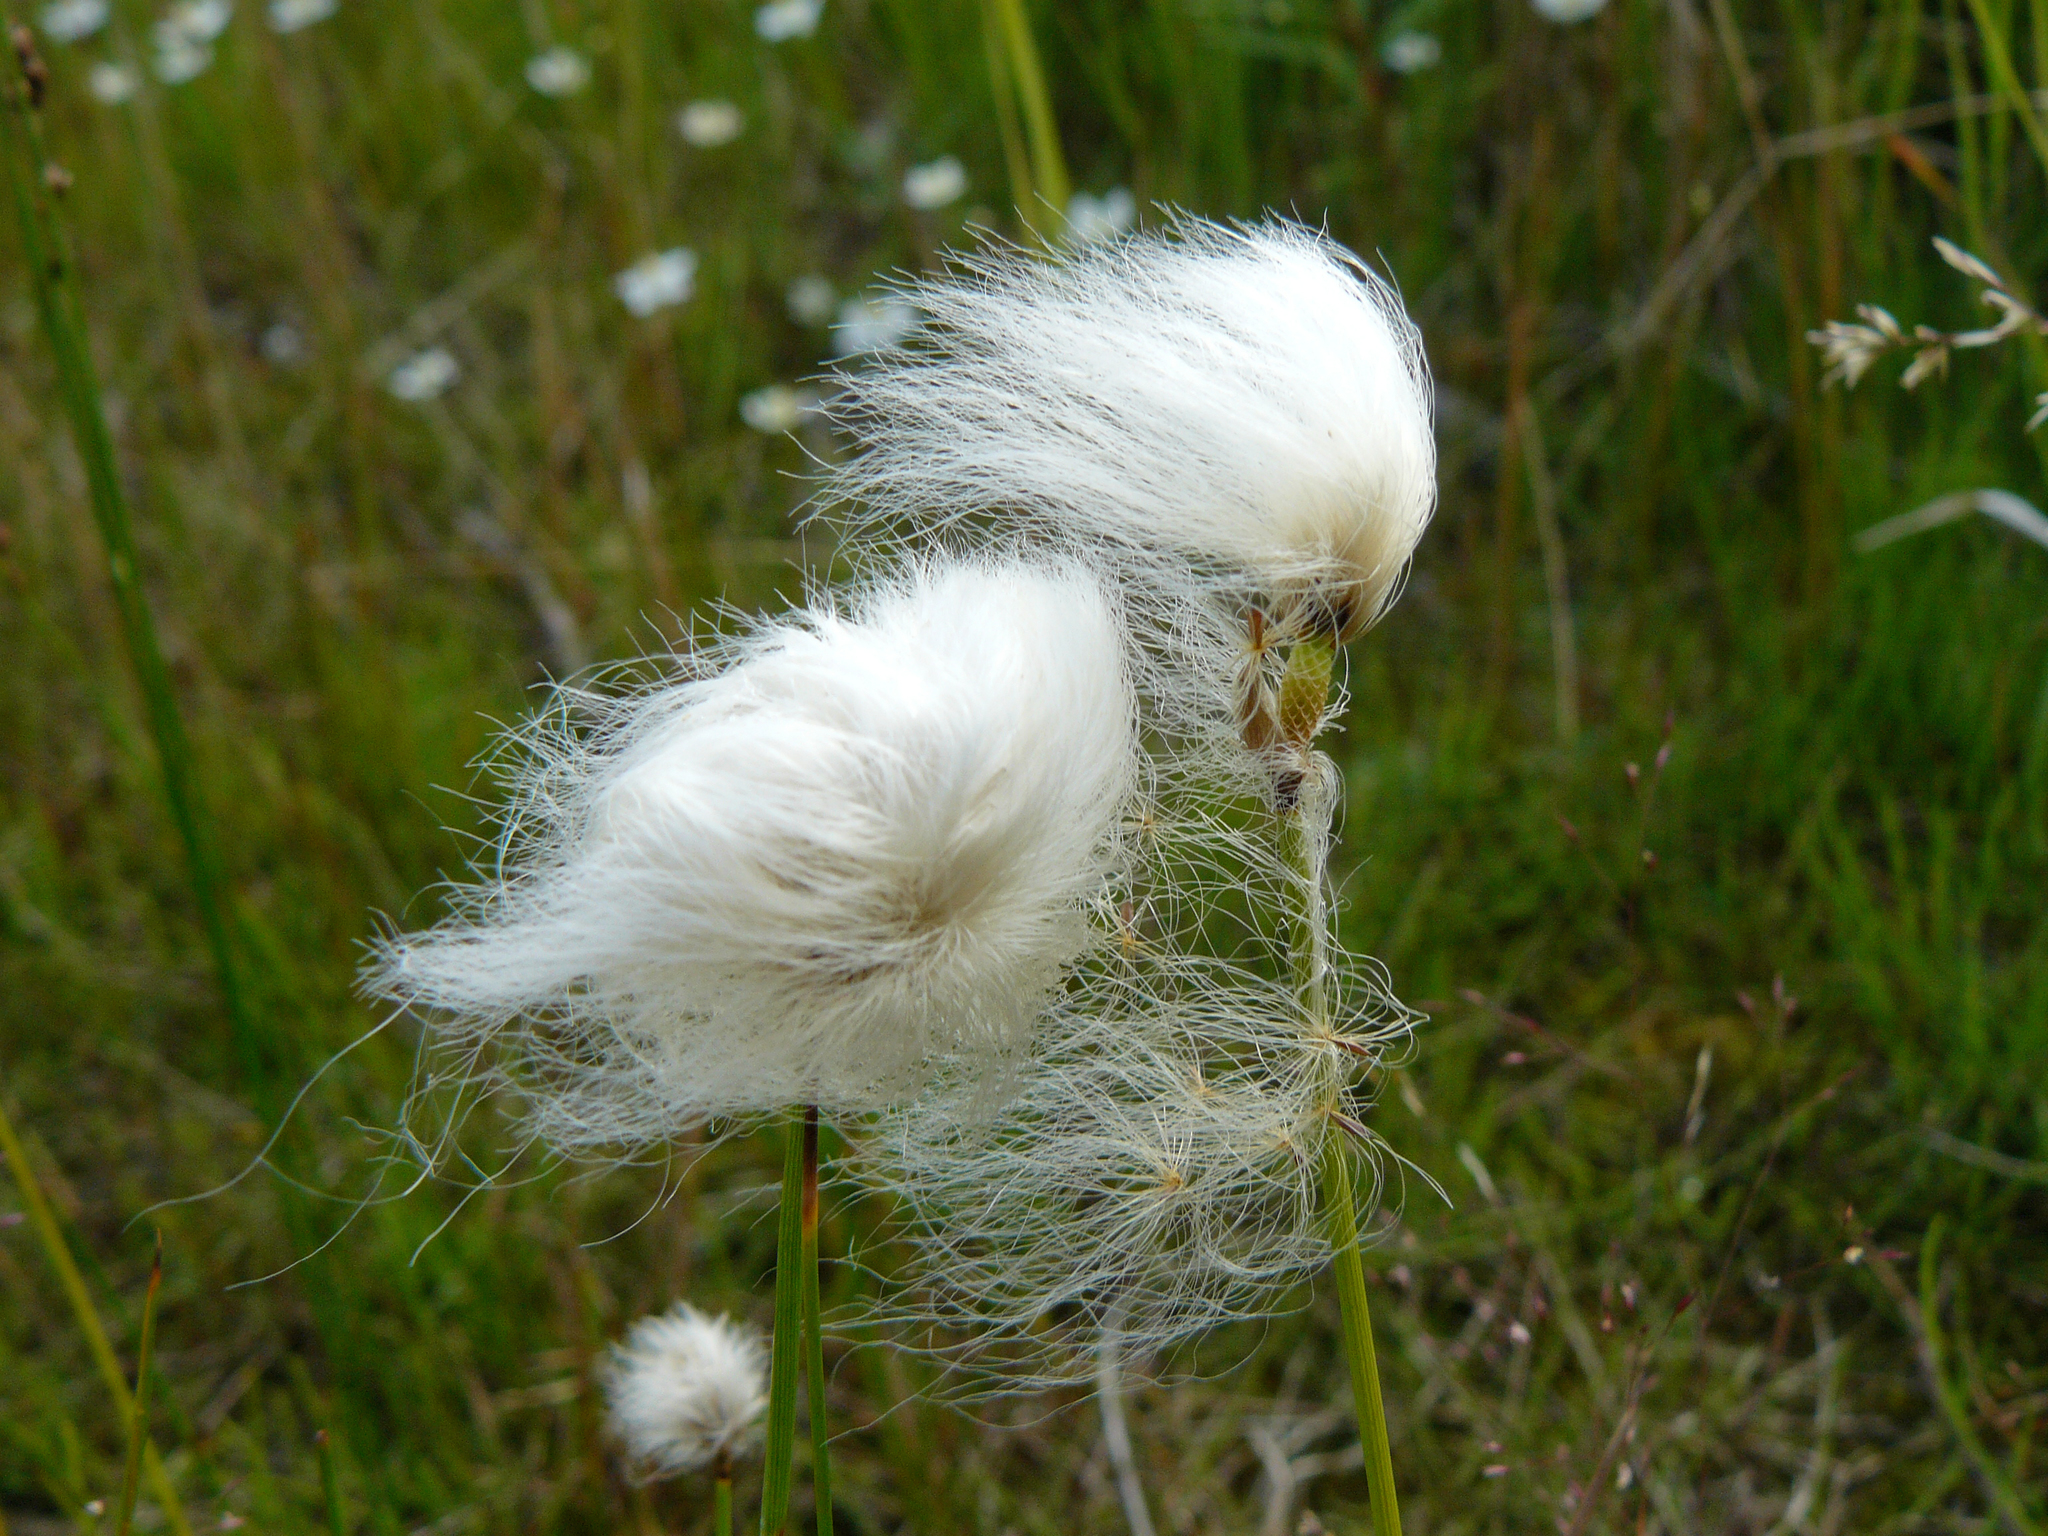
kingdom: Plantae
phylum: Tracheophyta
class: Liliopsida
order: Poales
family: Cyperaceae
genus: Eriophorum
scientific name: Eriophorum scheuchzeri
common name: Scheuchzer's cottongrass
